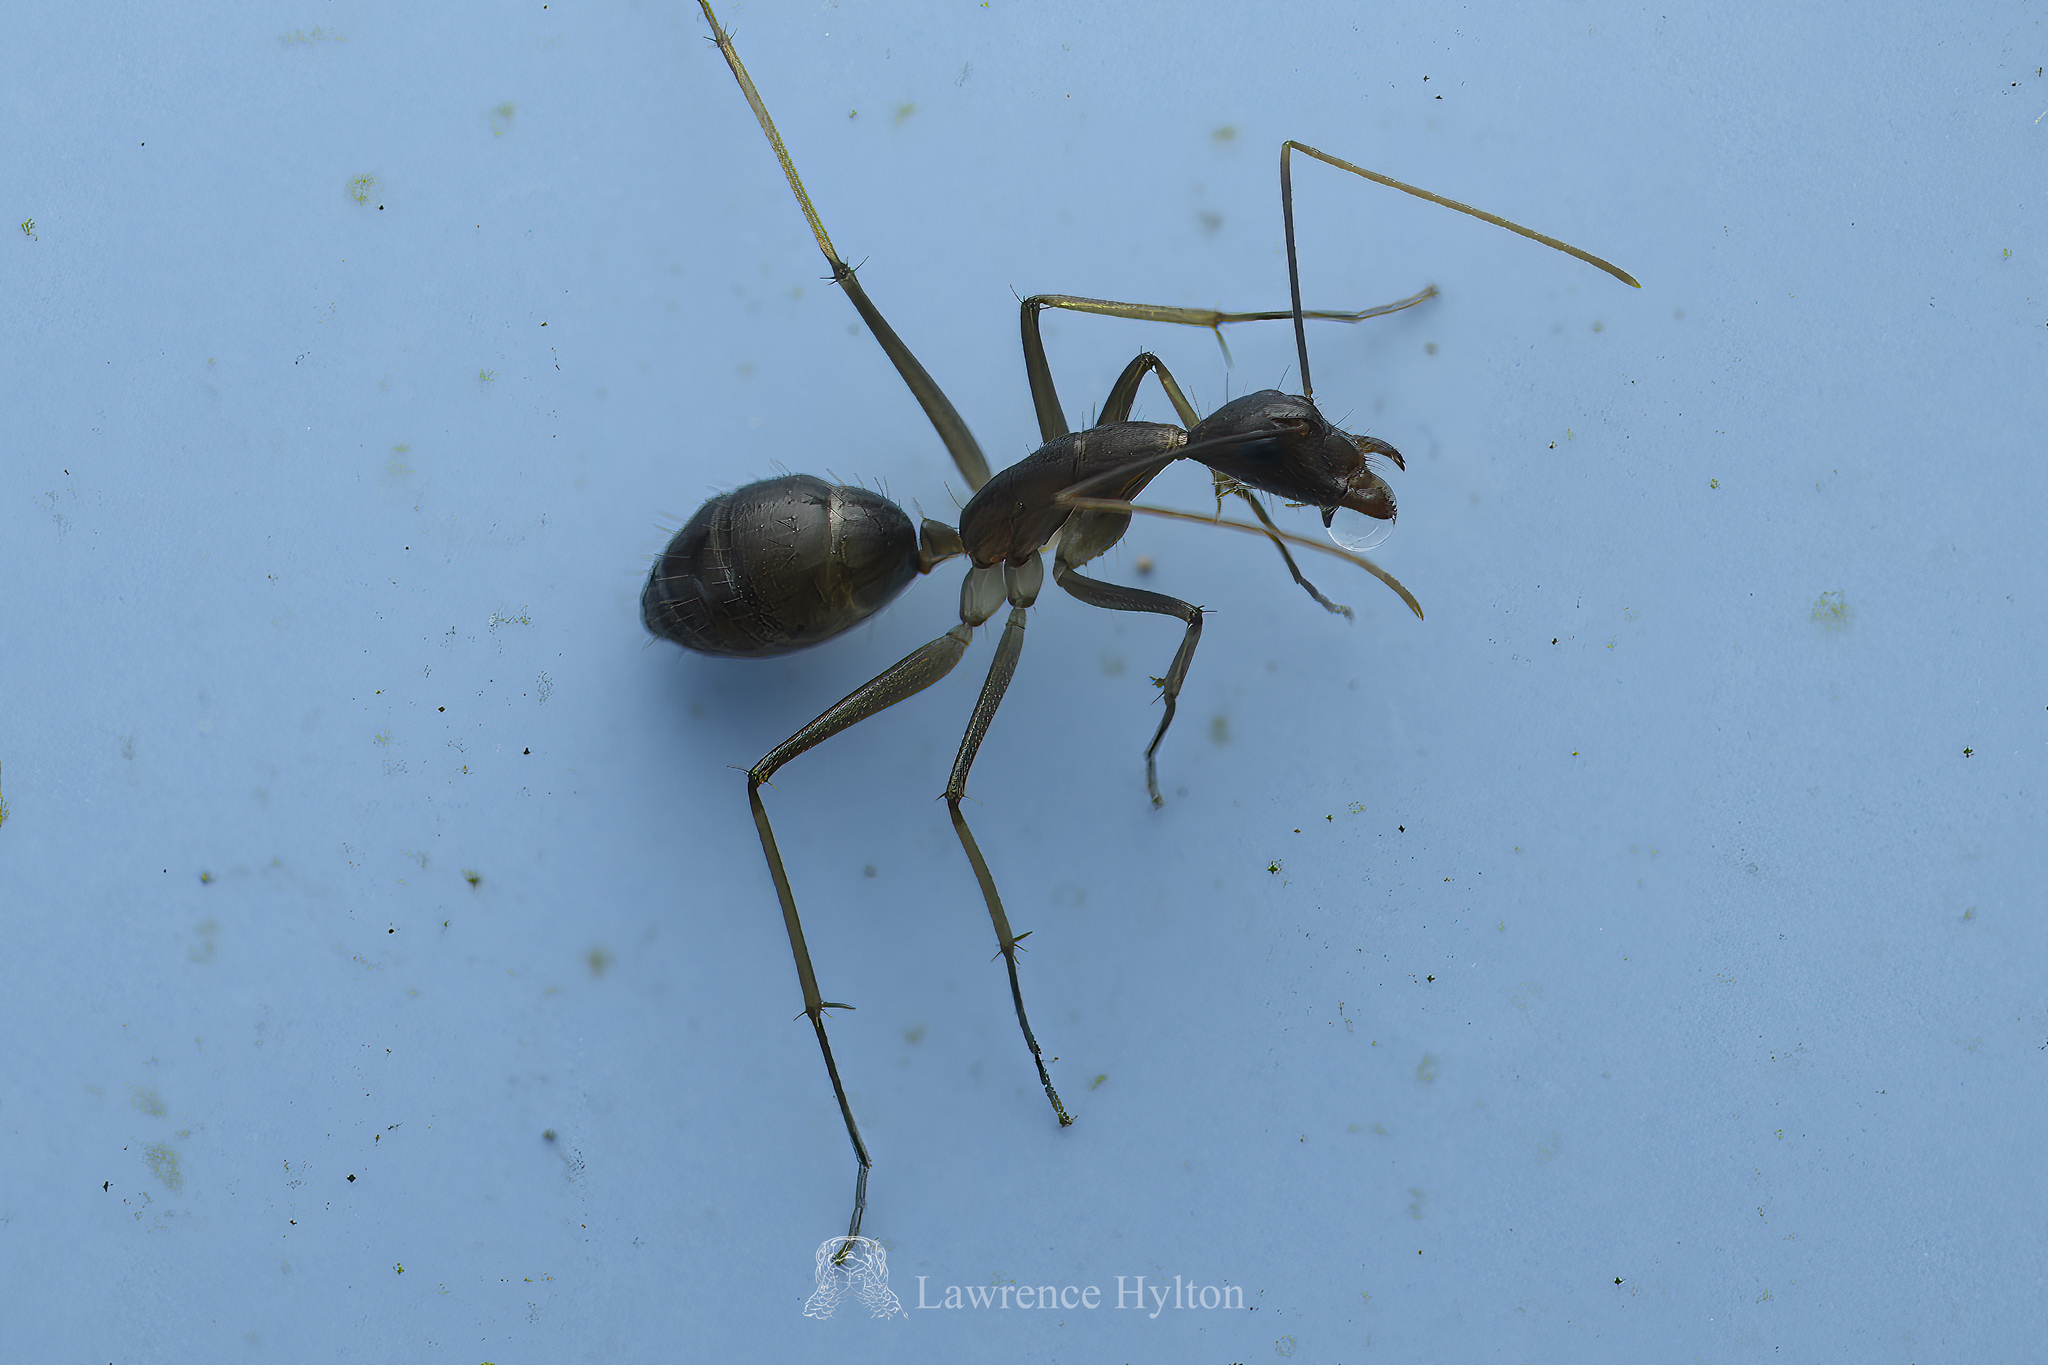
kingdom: Animalia
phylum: Arthropoda
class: Insecta
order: Hymenoptera
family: Formicidae
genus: Camponotus
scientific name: Camponotus mitis
